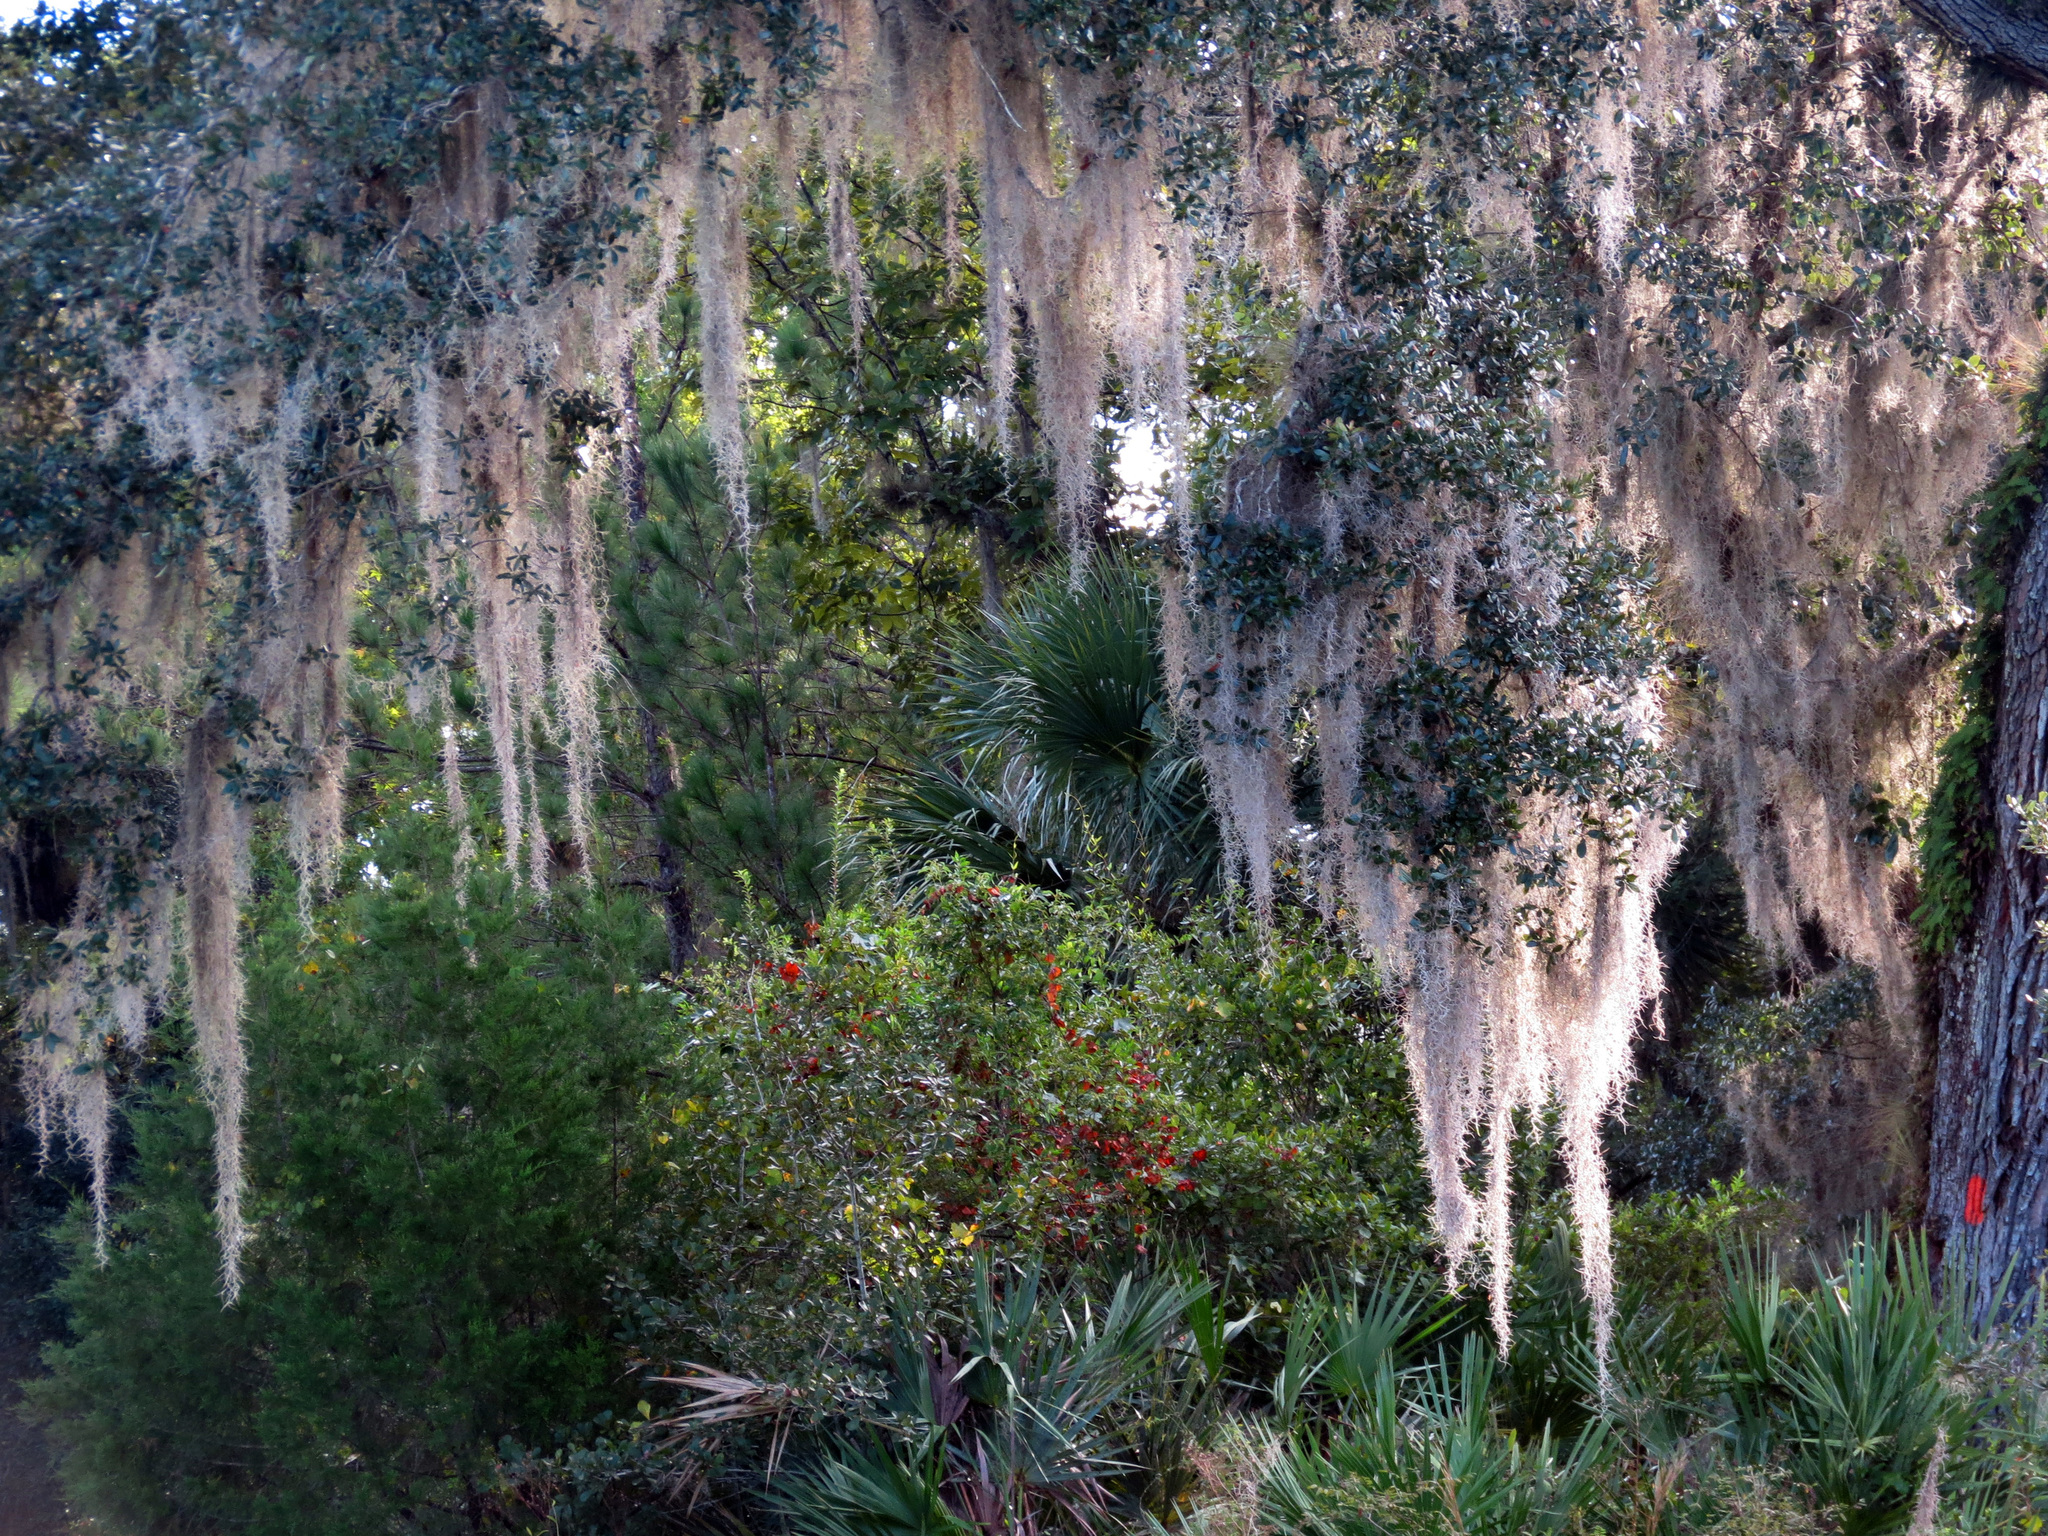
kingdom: Plantae
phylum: Tracheophyta
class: Liliopsida
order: Poales
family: Bromeliaceae
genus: Tillandsia
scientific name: Tillandsia usneoides
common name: Spanish moss
